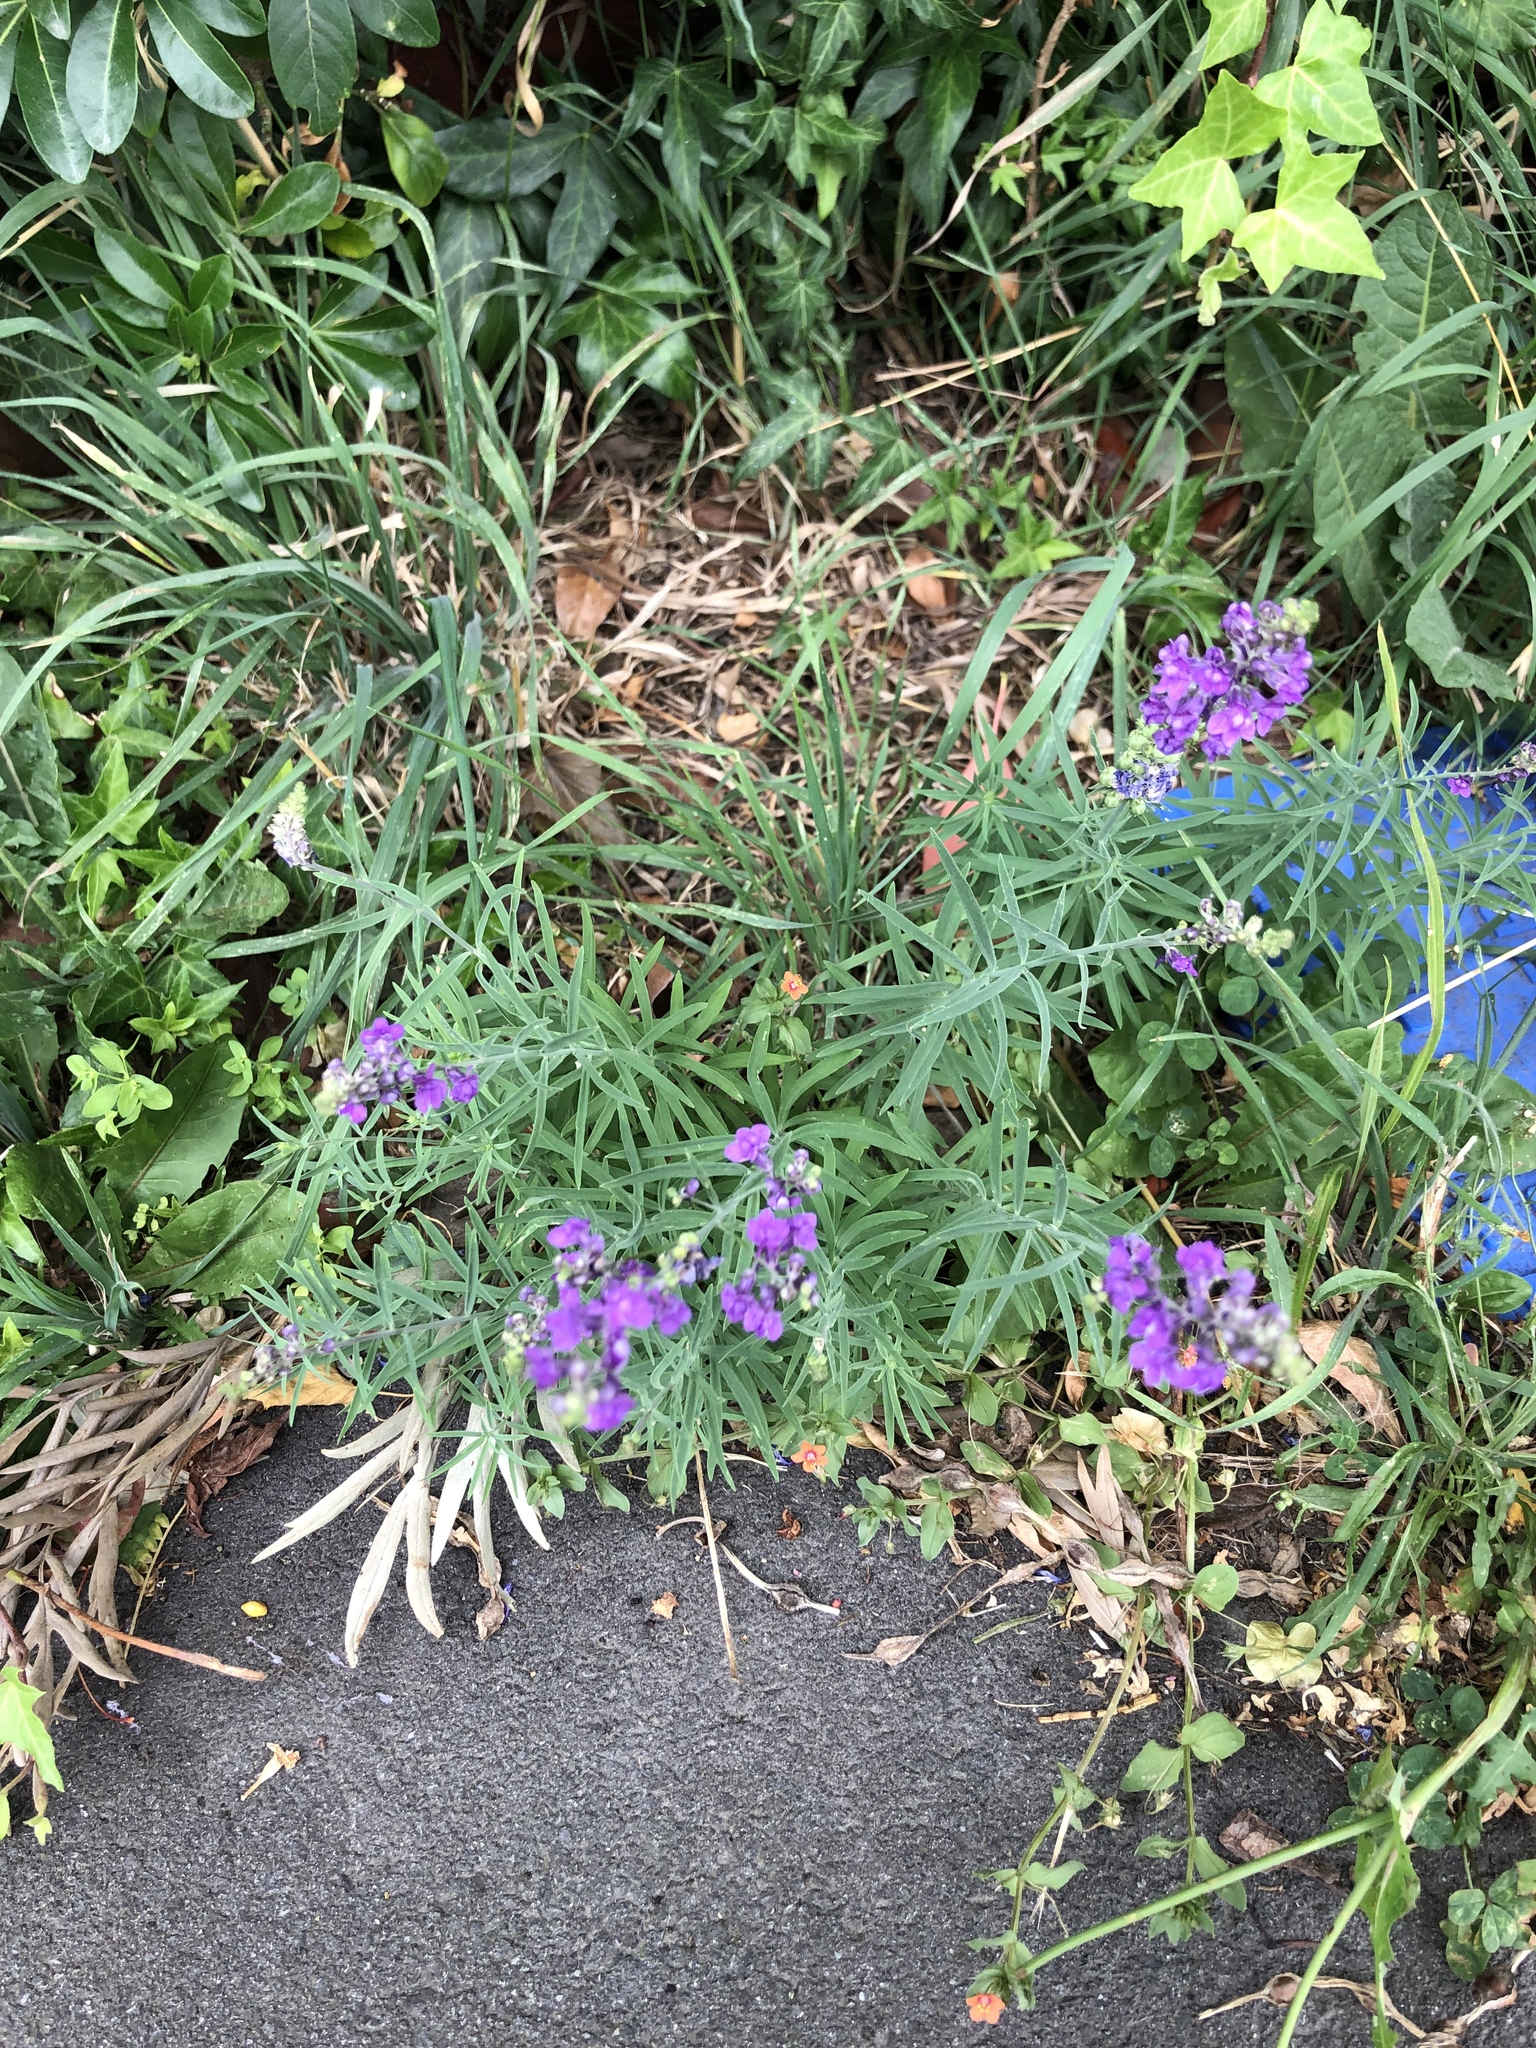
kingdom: Plantae
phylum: Tracheophyta
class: Magnoliopsida
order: Lamiales
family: Plantaginaceae
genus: Linaria
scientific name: Linaria purpurea
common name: Purple toadflax
